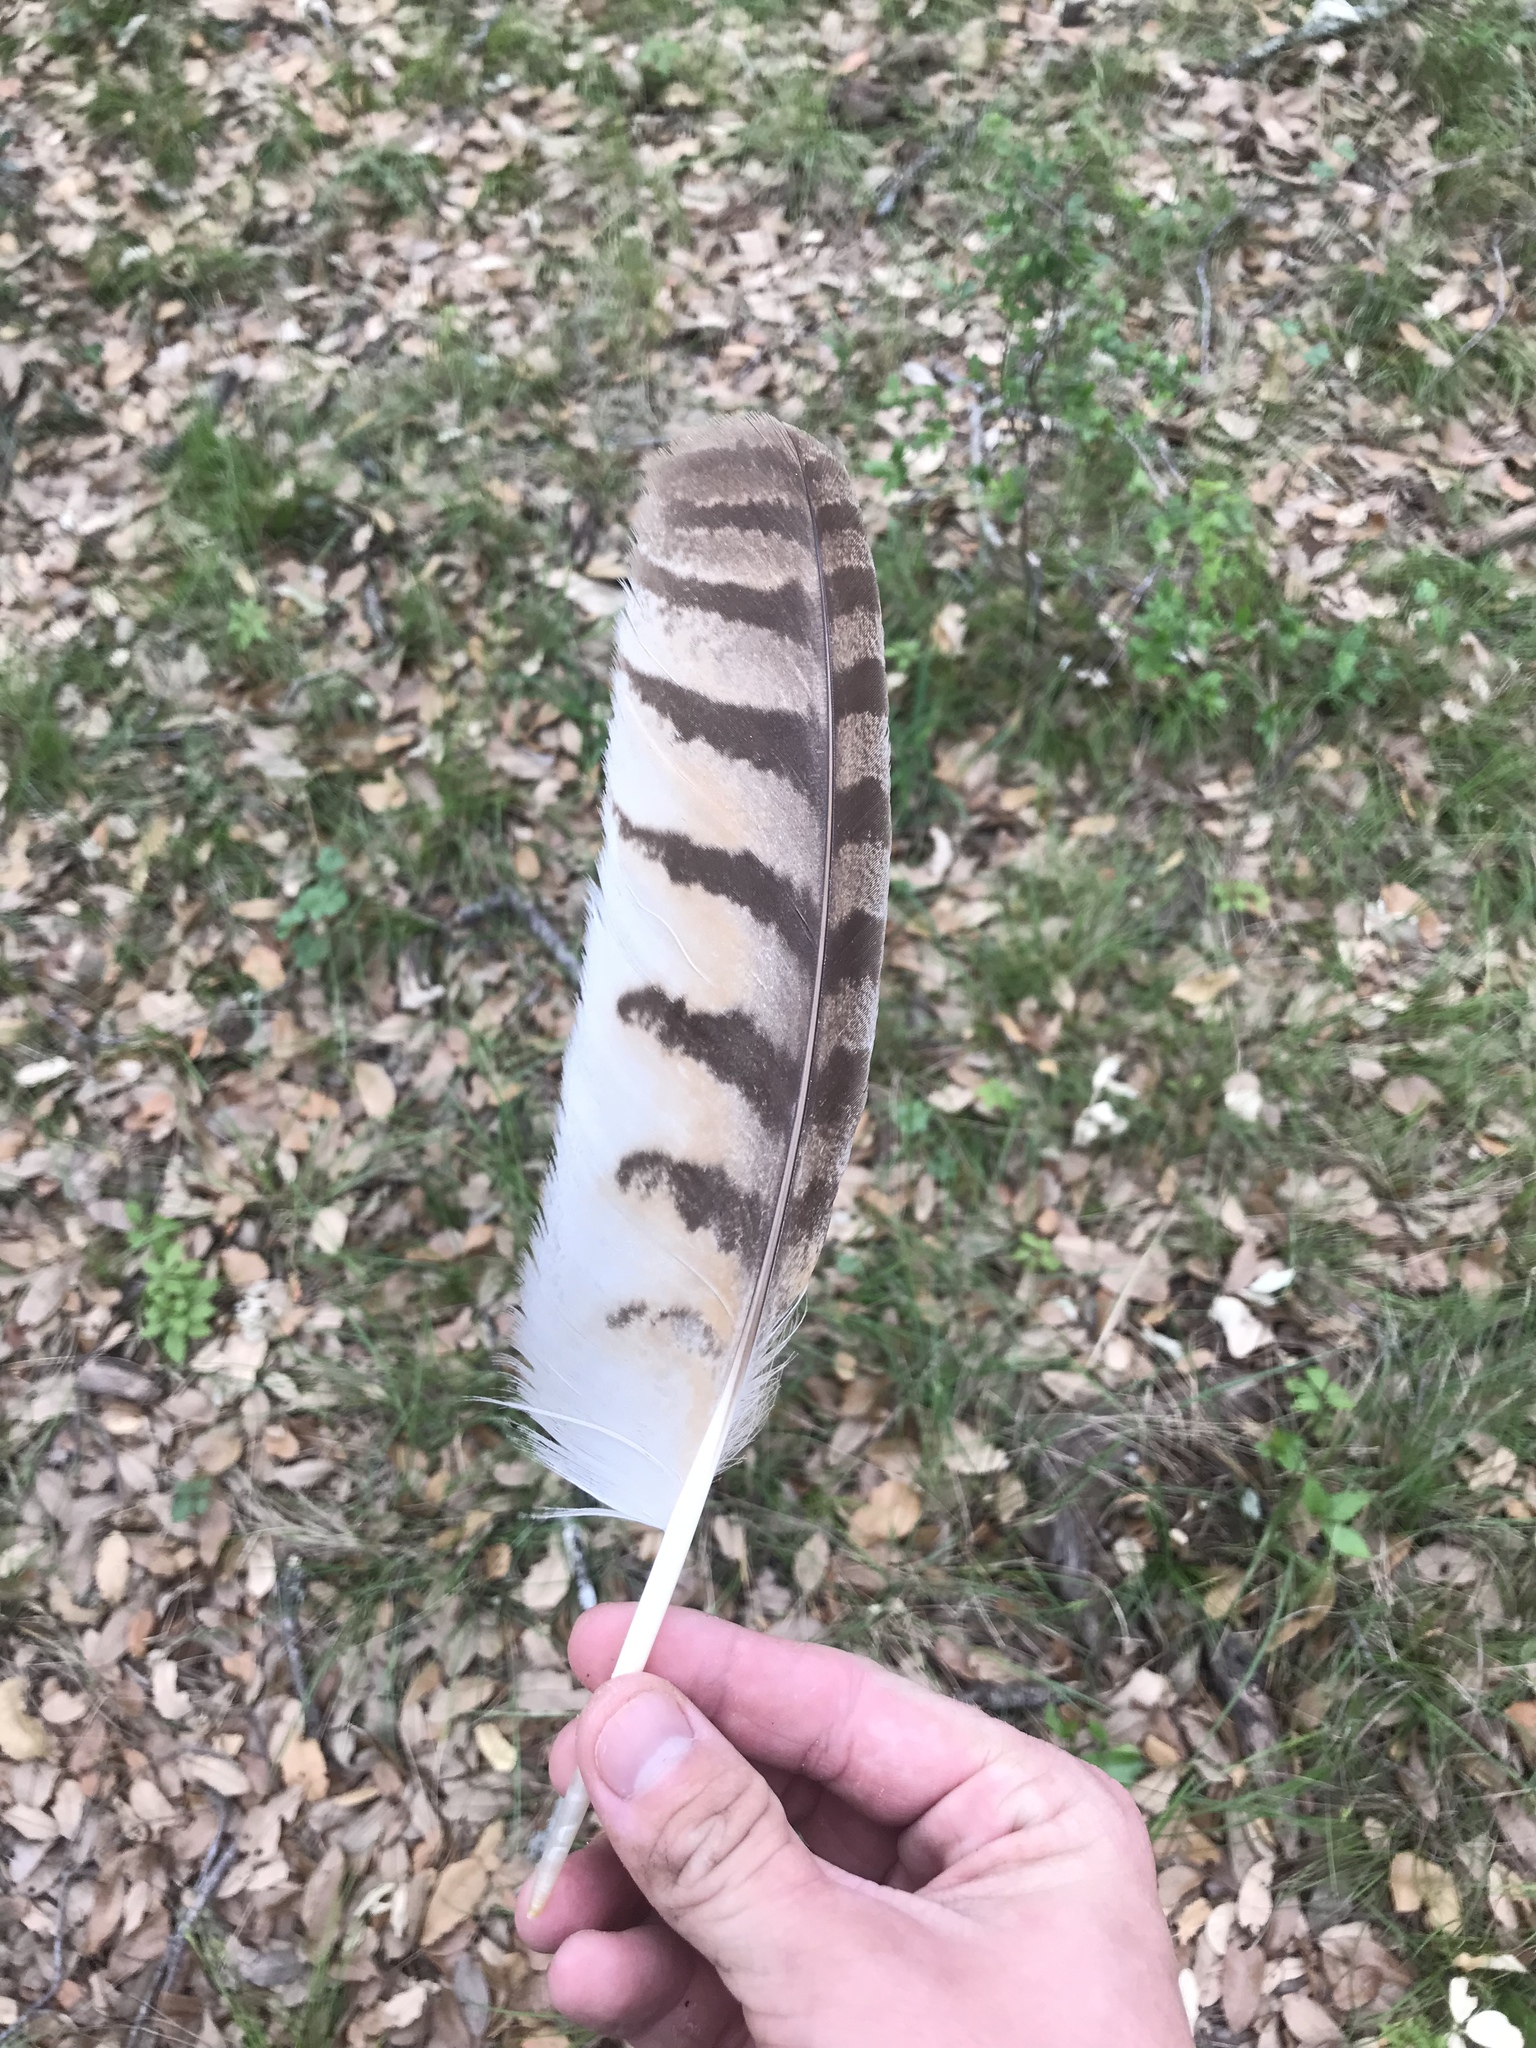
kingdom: Animalia
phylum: Chordata
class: Aves
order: Strigiformes
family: Strigidae
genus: Bubo
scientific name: Bubo virginianus
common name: Great horned owl
